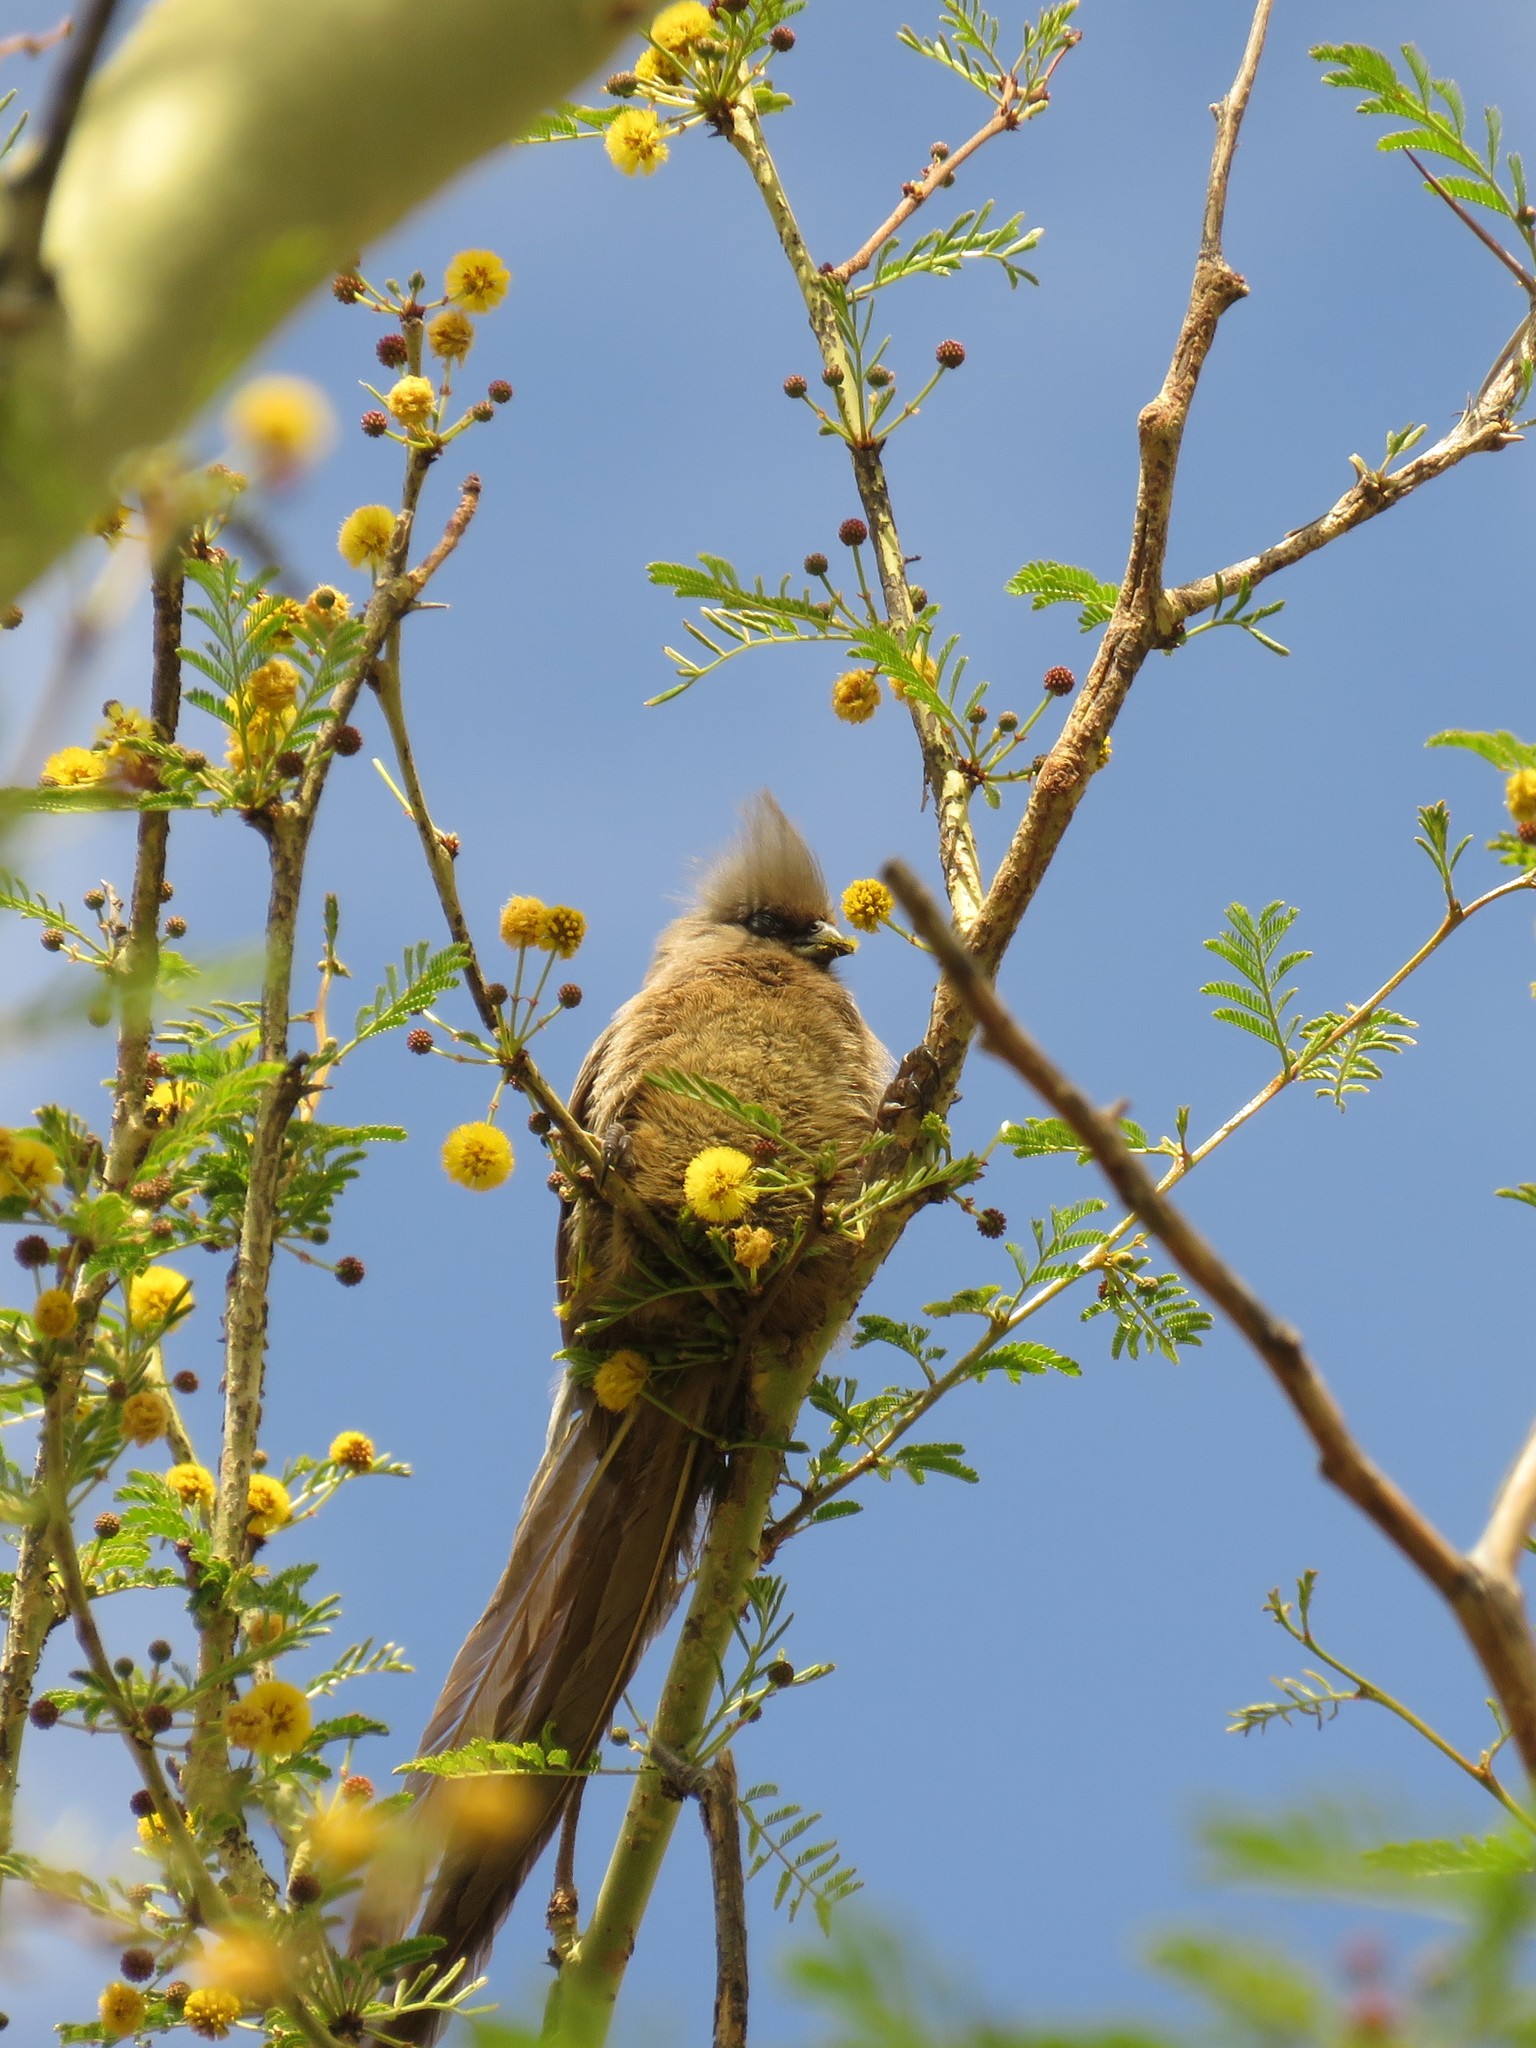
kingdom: Animalia
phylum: Chordata
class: Aves
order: Coliiformes
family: Coliidae
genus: Colius
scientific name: Colius striatus
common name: Speckled mousebird
